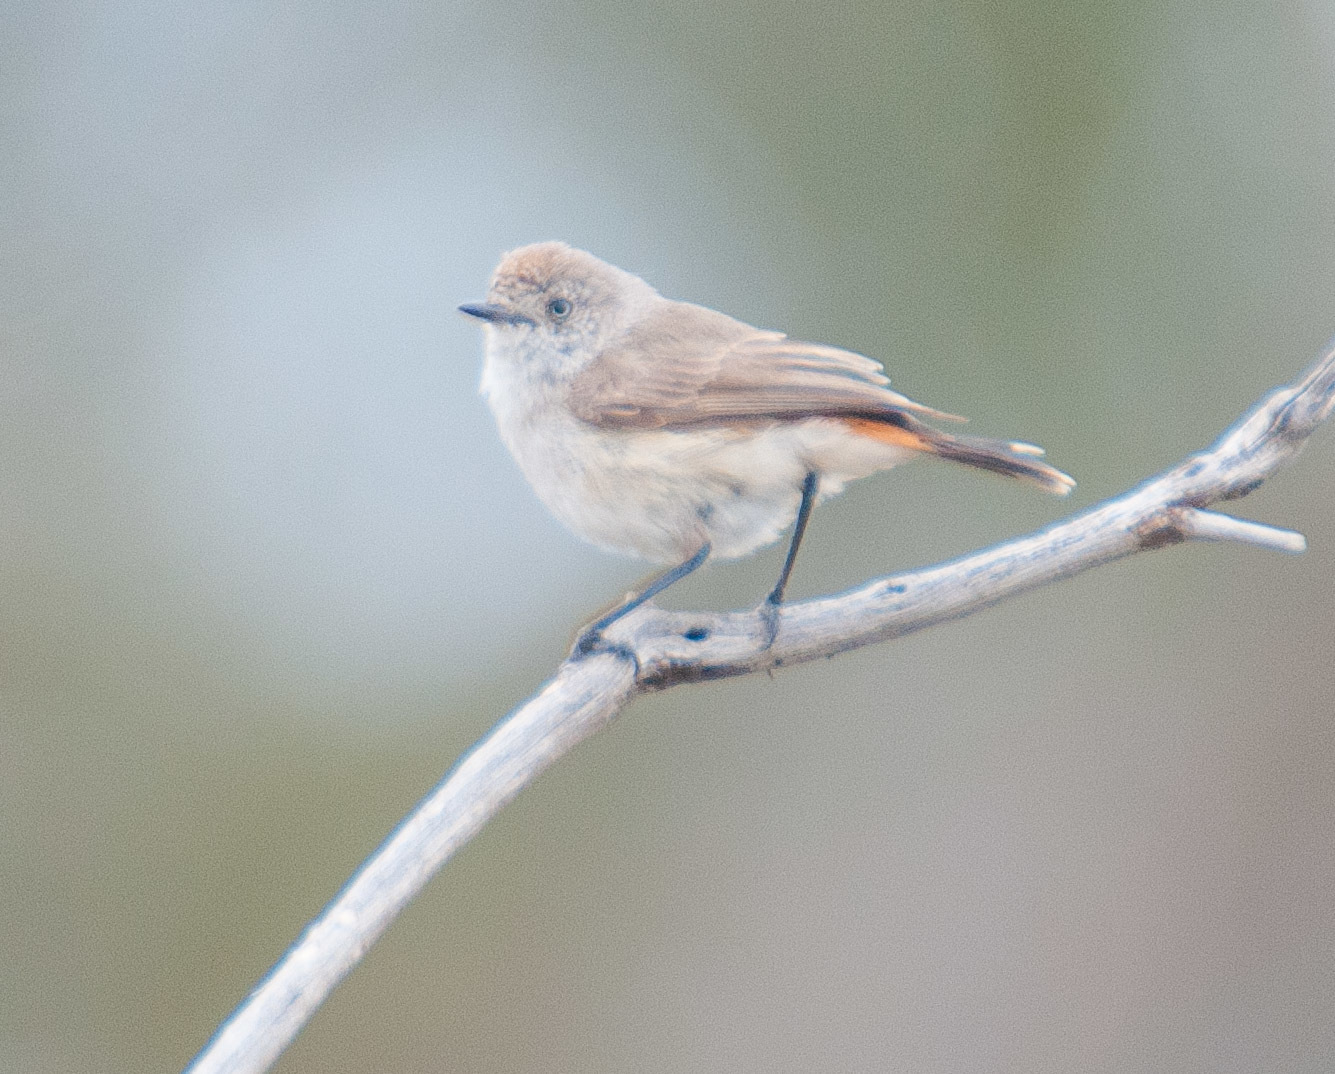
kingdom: Animalia
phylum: Chordata
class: Aves
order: Passeriformes
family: Acanthizidae
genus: Acanthiza
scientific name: Acanthiza uropygialis
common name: Chestnut-rumped thornbill
